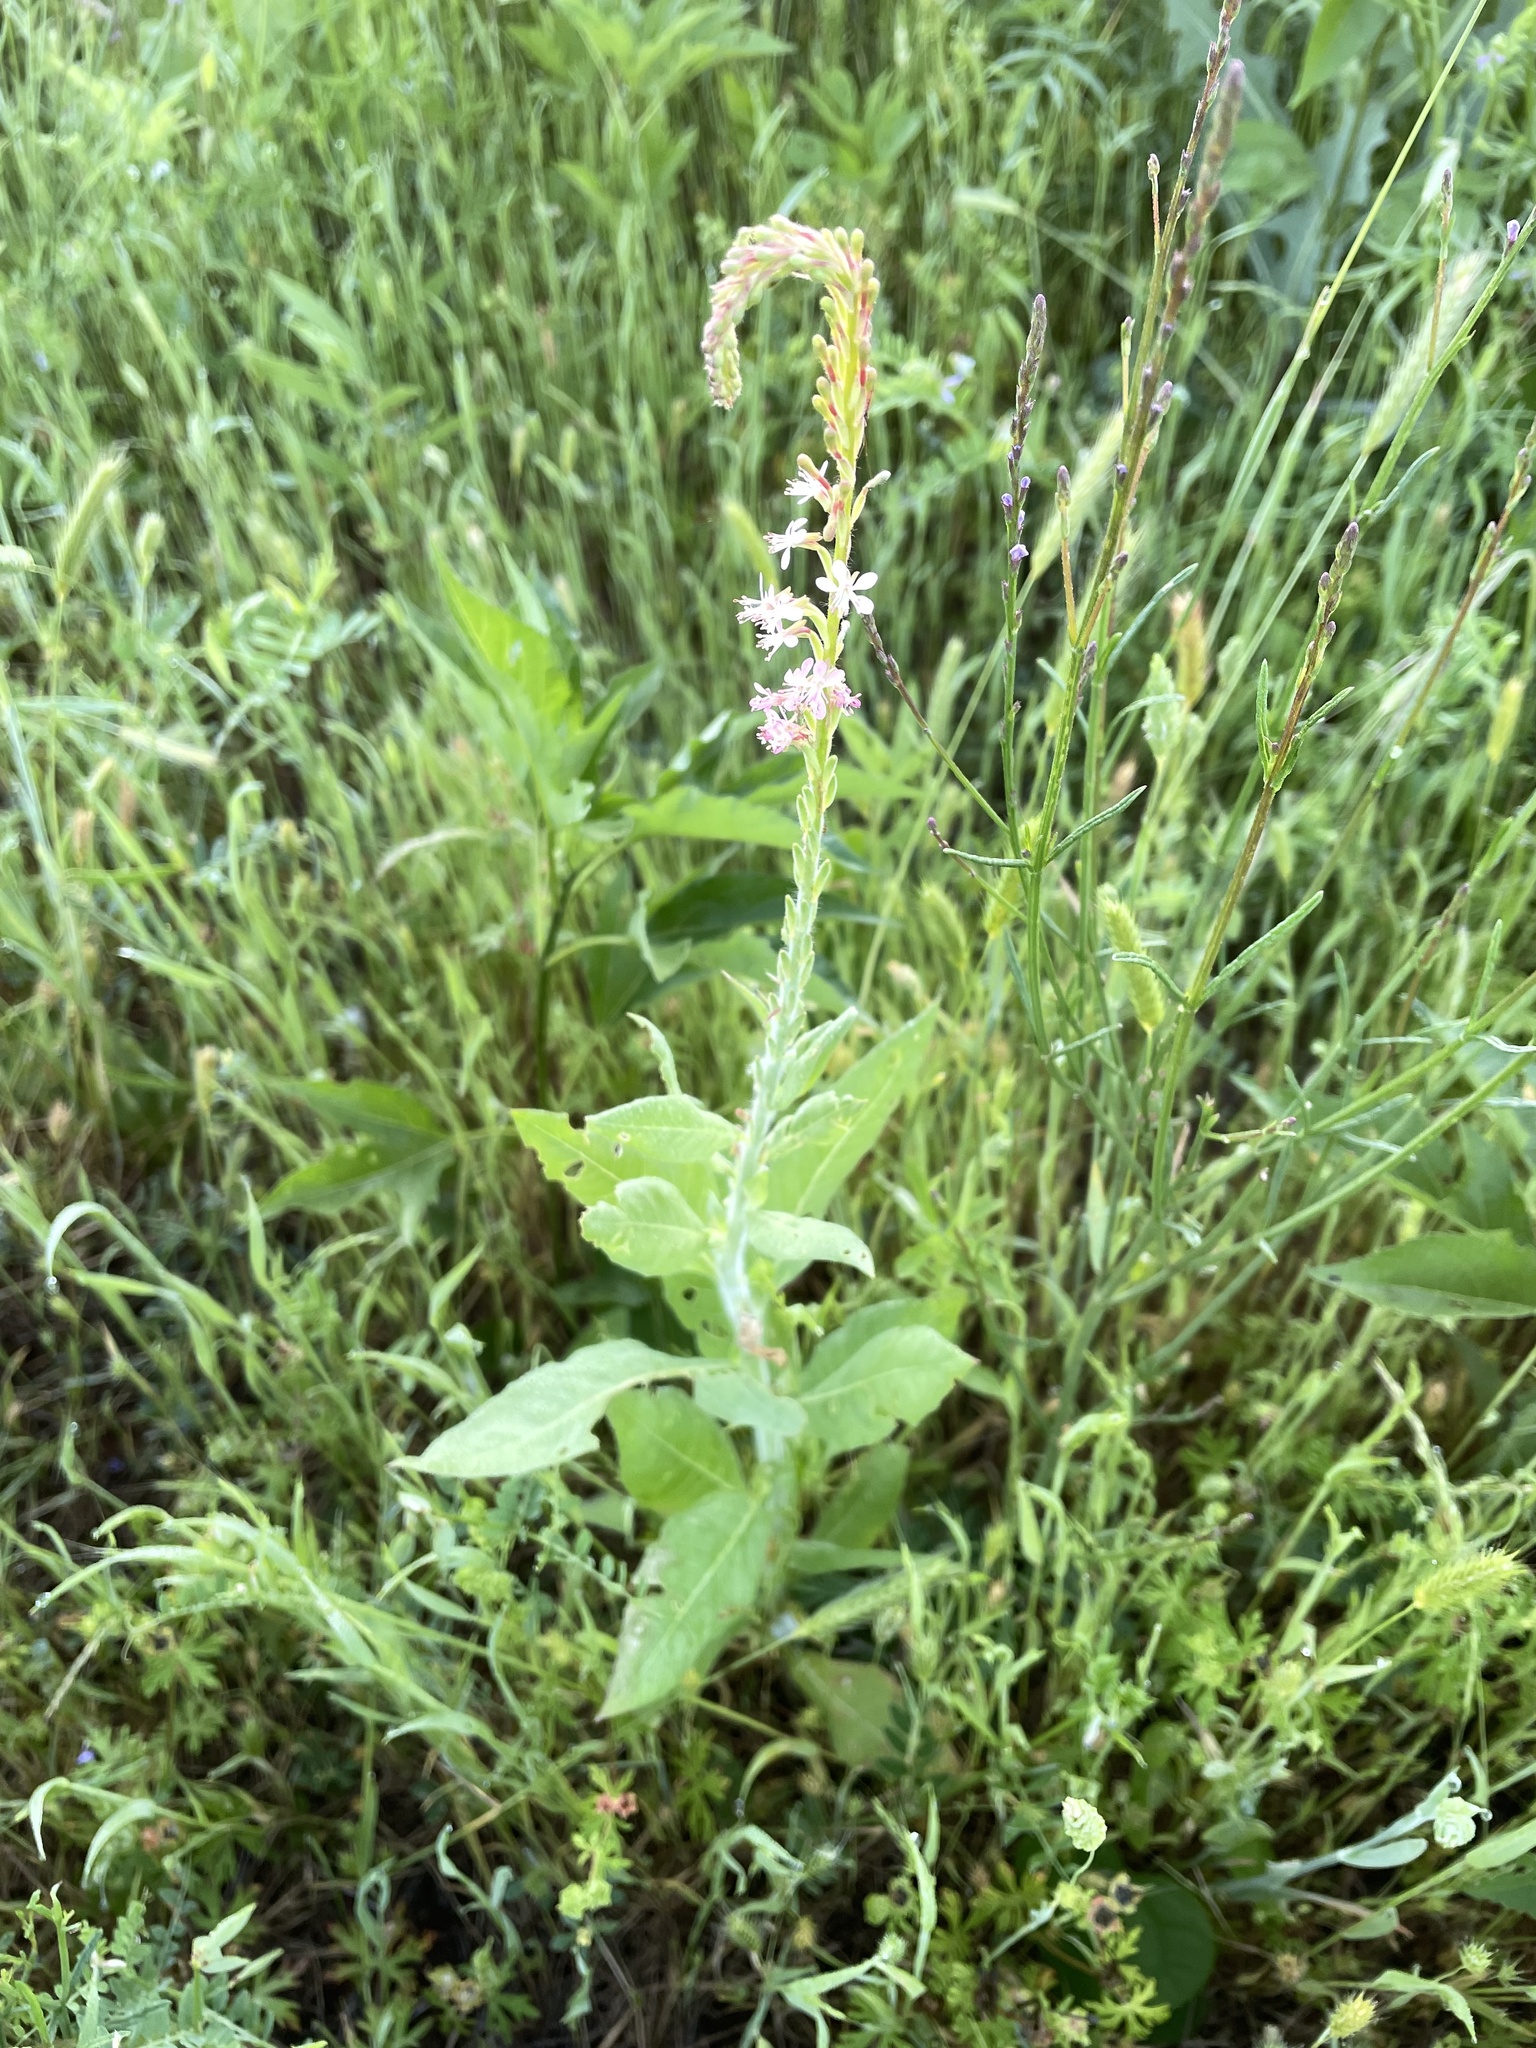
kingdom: Plantae
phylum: Tracheophyta
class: Magnoliopsida
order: Myrtales
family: Onagraceae
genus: Oenothera
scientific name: Oenothera curtiflora
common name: Velvetweed
